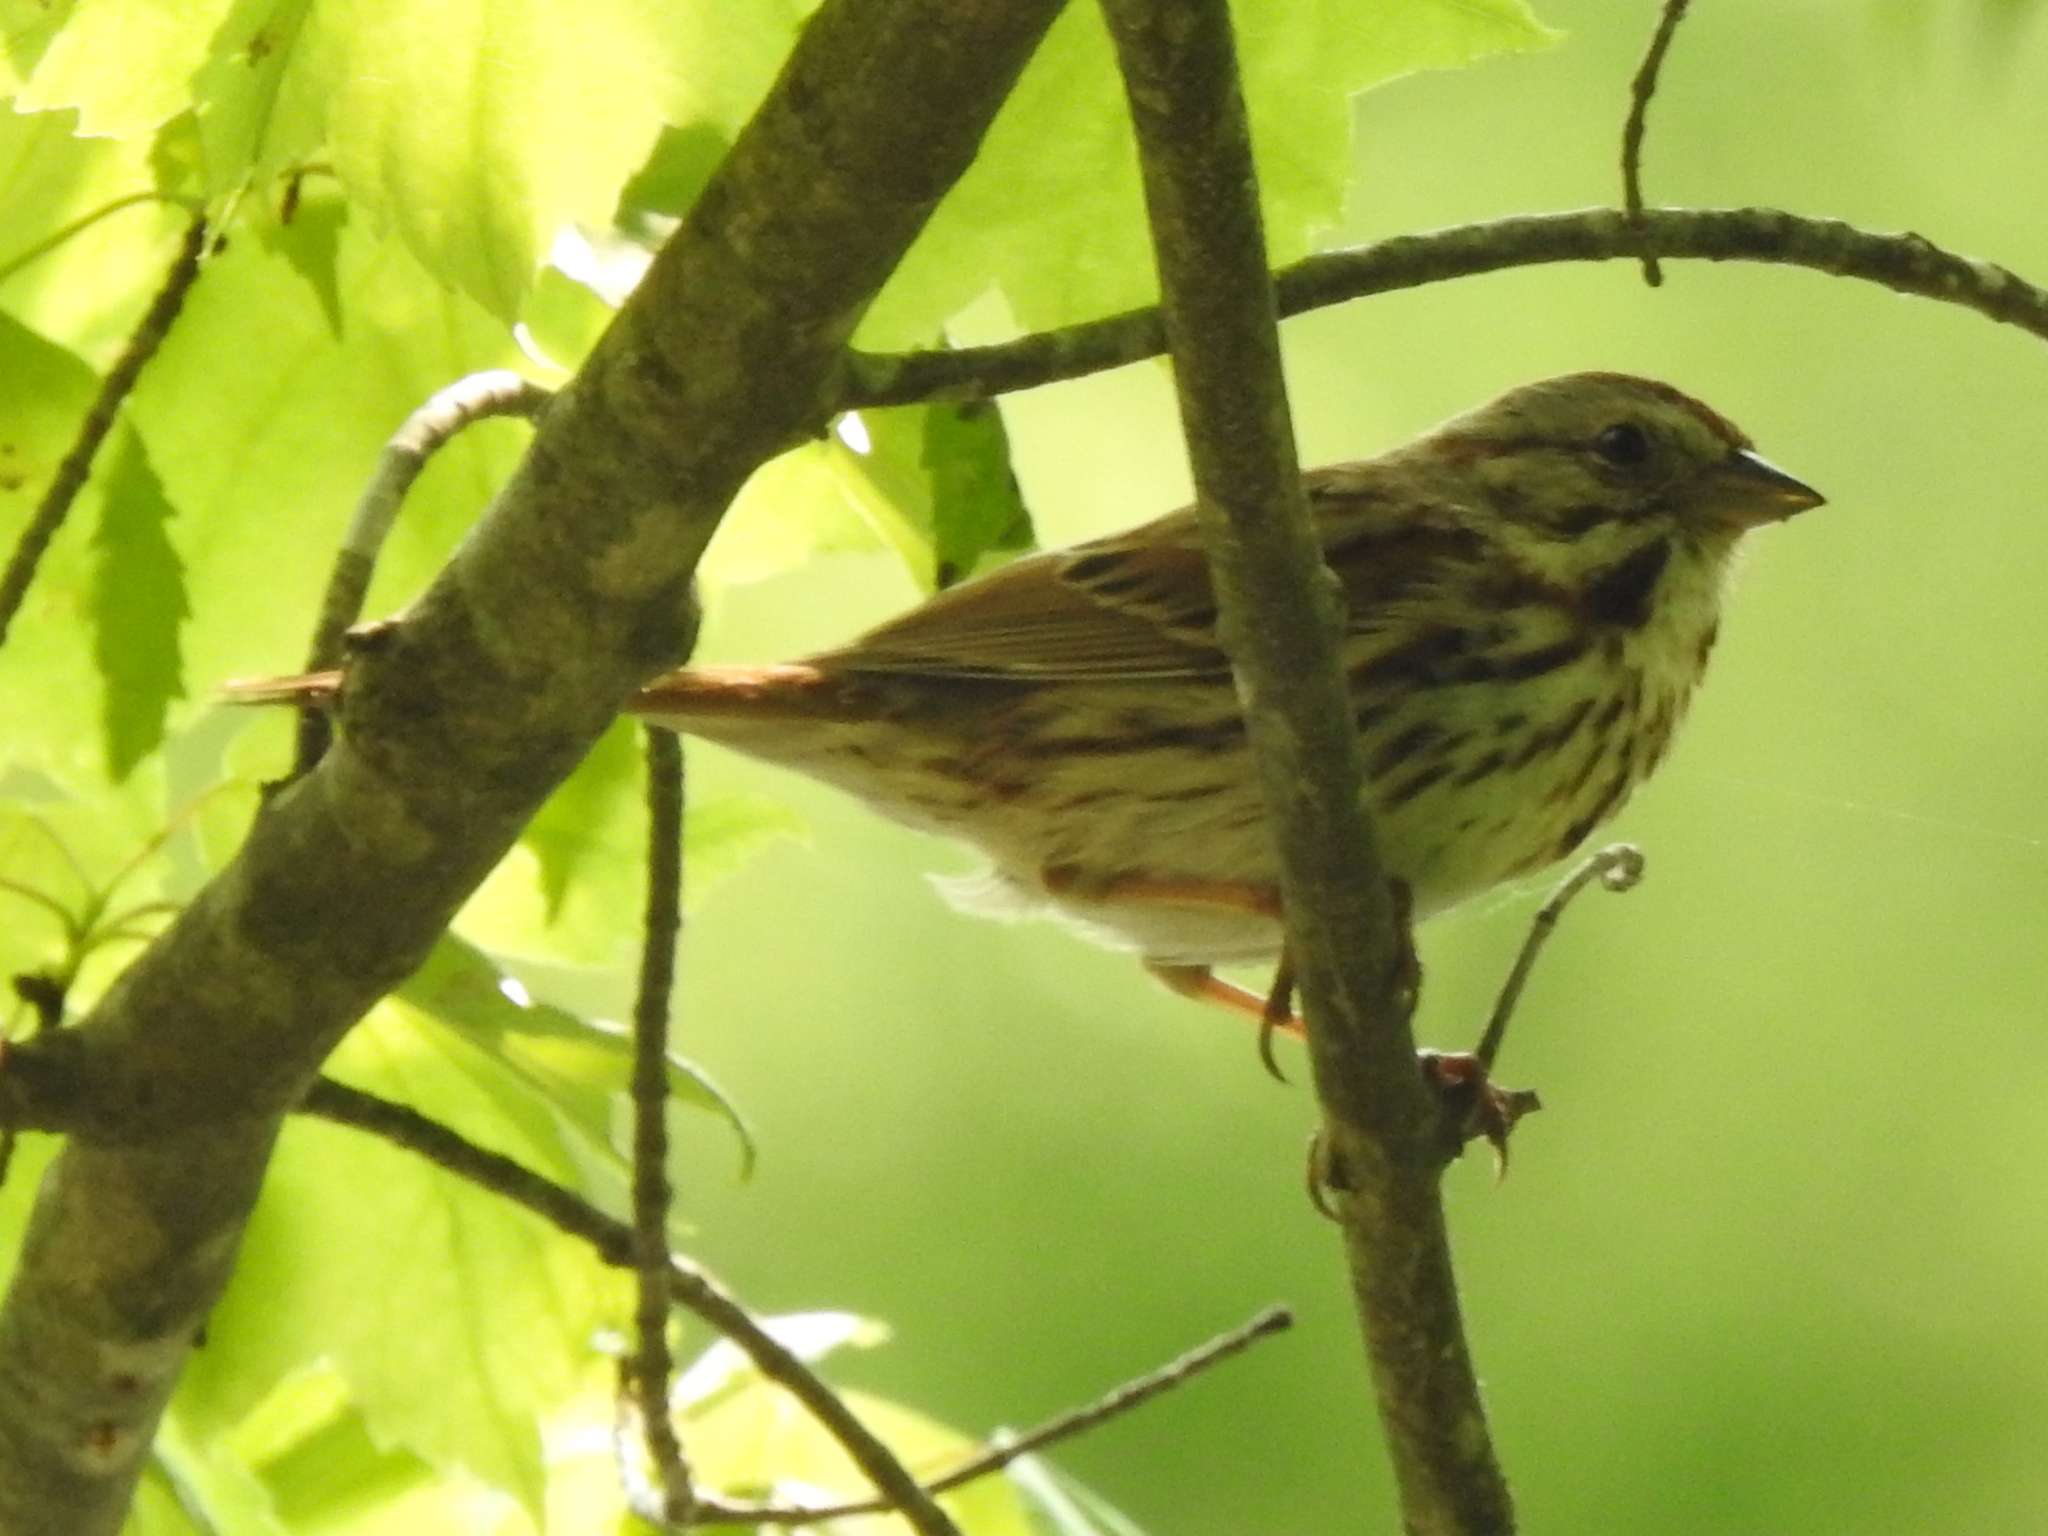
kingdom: Animalia
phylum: Chordata
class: Aves
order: Passeriformes
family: Passerellidae
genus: Melospiza
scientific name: Melospiza melodia
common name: Song sparrow
